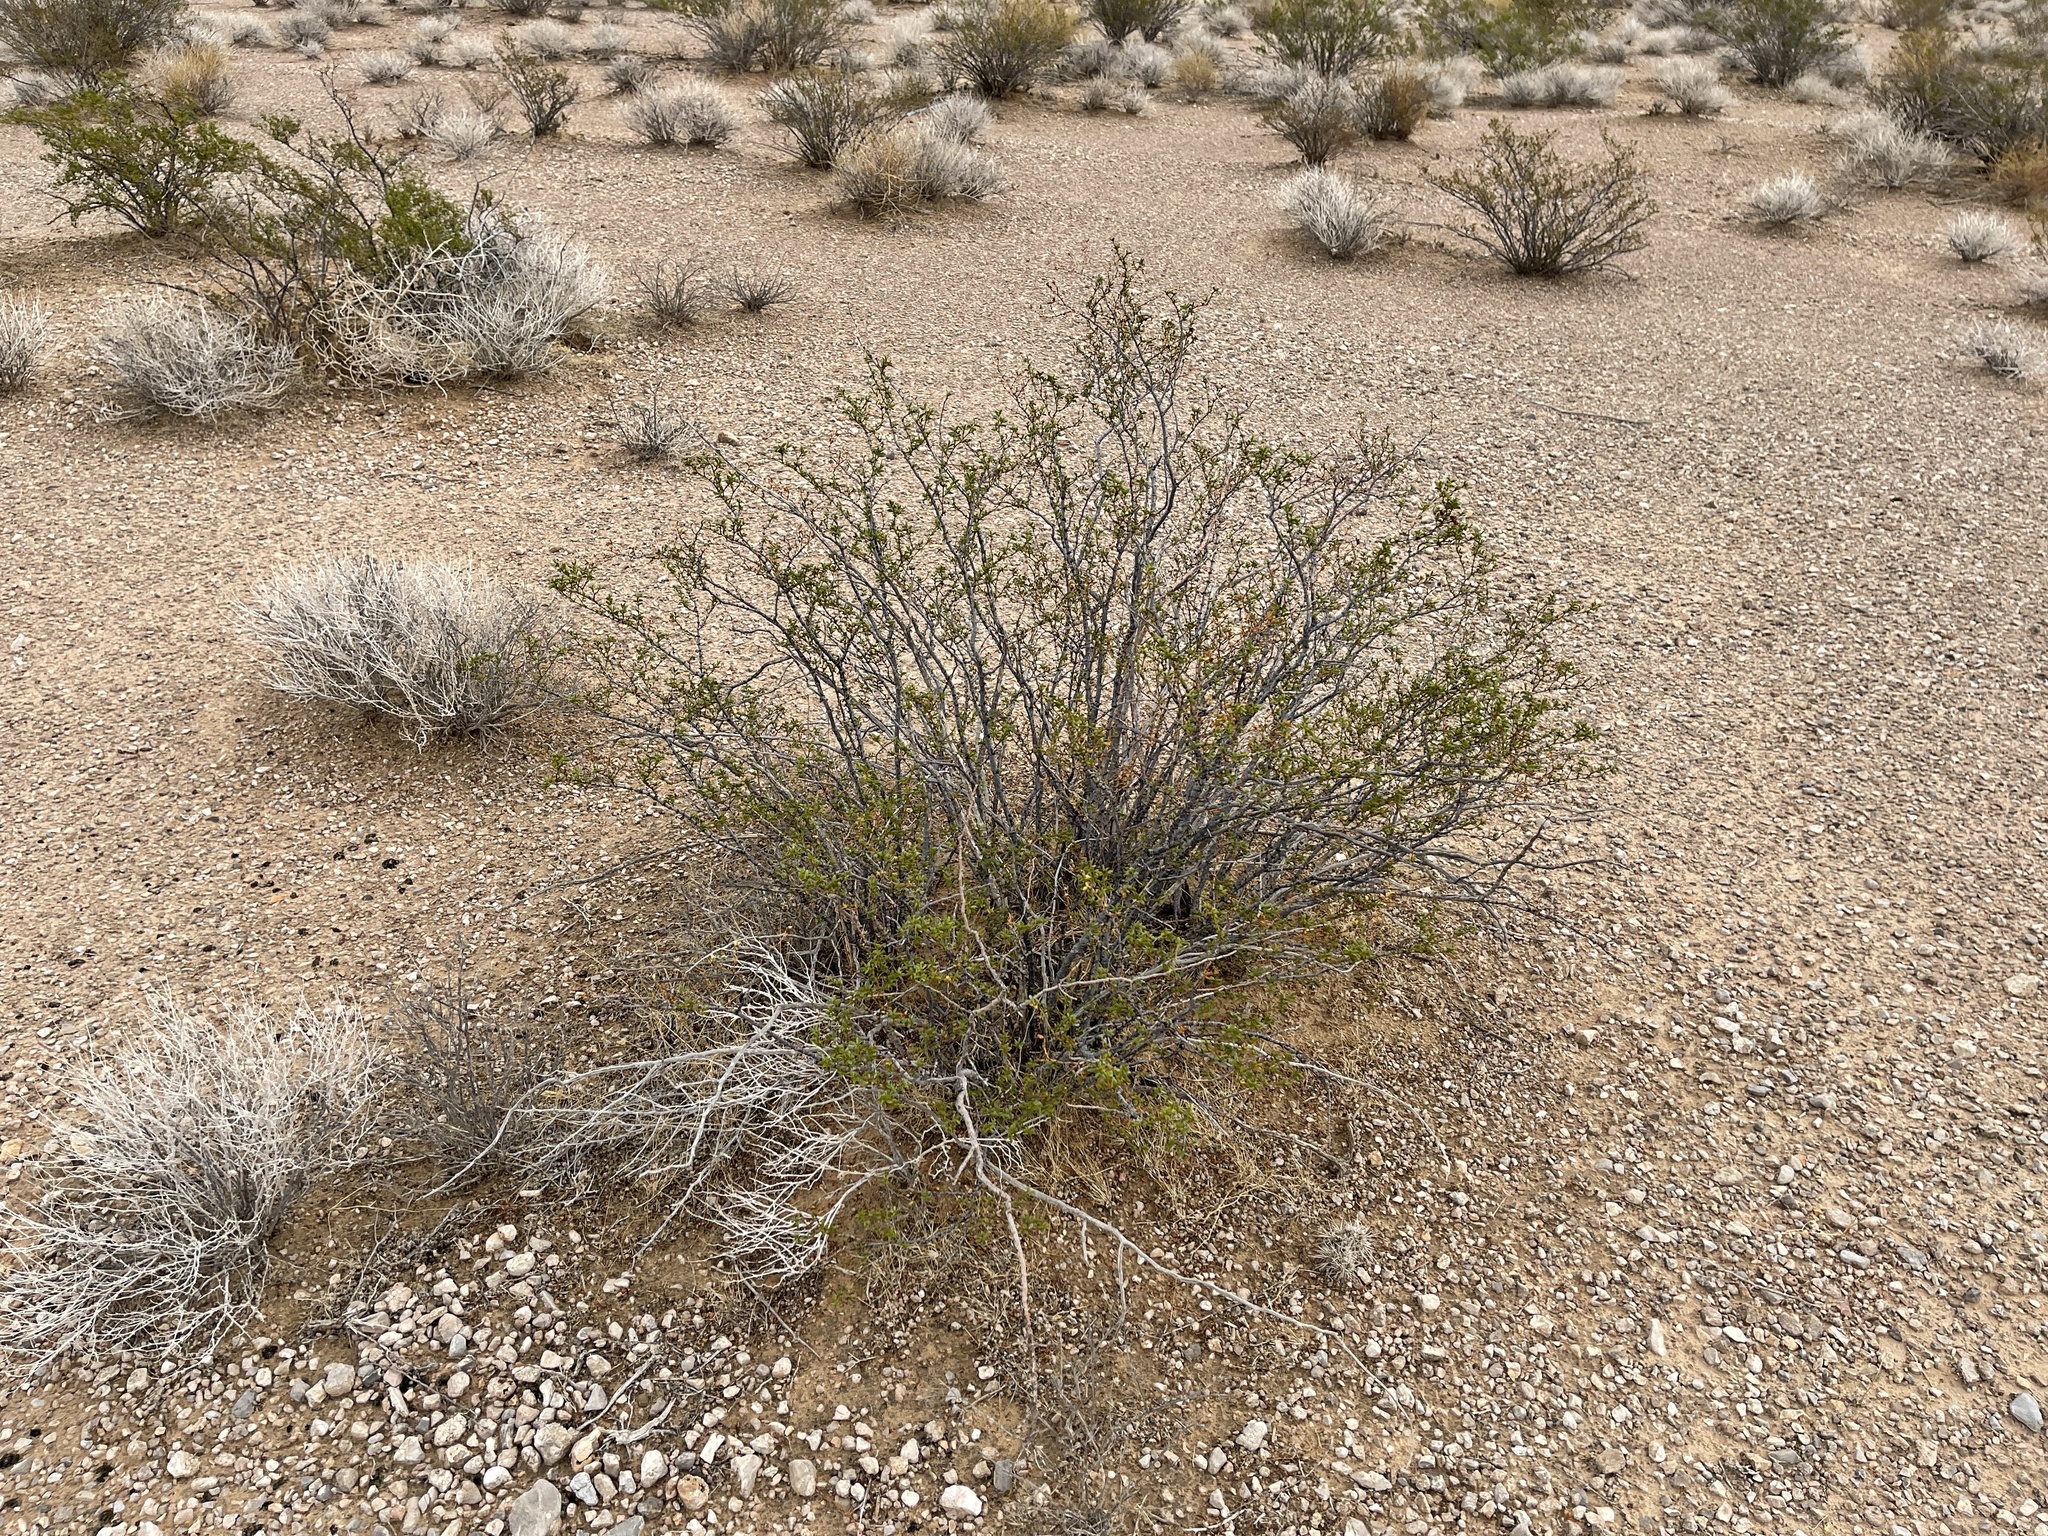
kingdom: Plantae
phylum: Tracheophyta
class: Magnoliopsida
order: Zygophyllales
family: Zygophyllaceae
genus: Larrea
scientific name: Larrea tridentata
